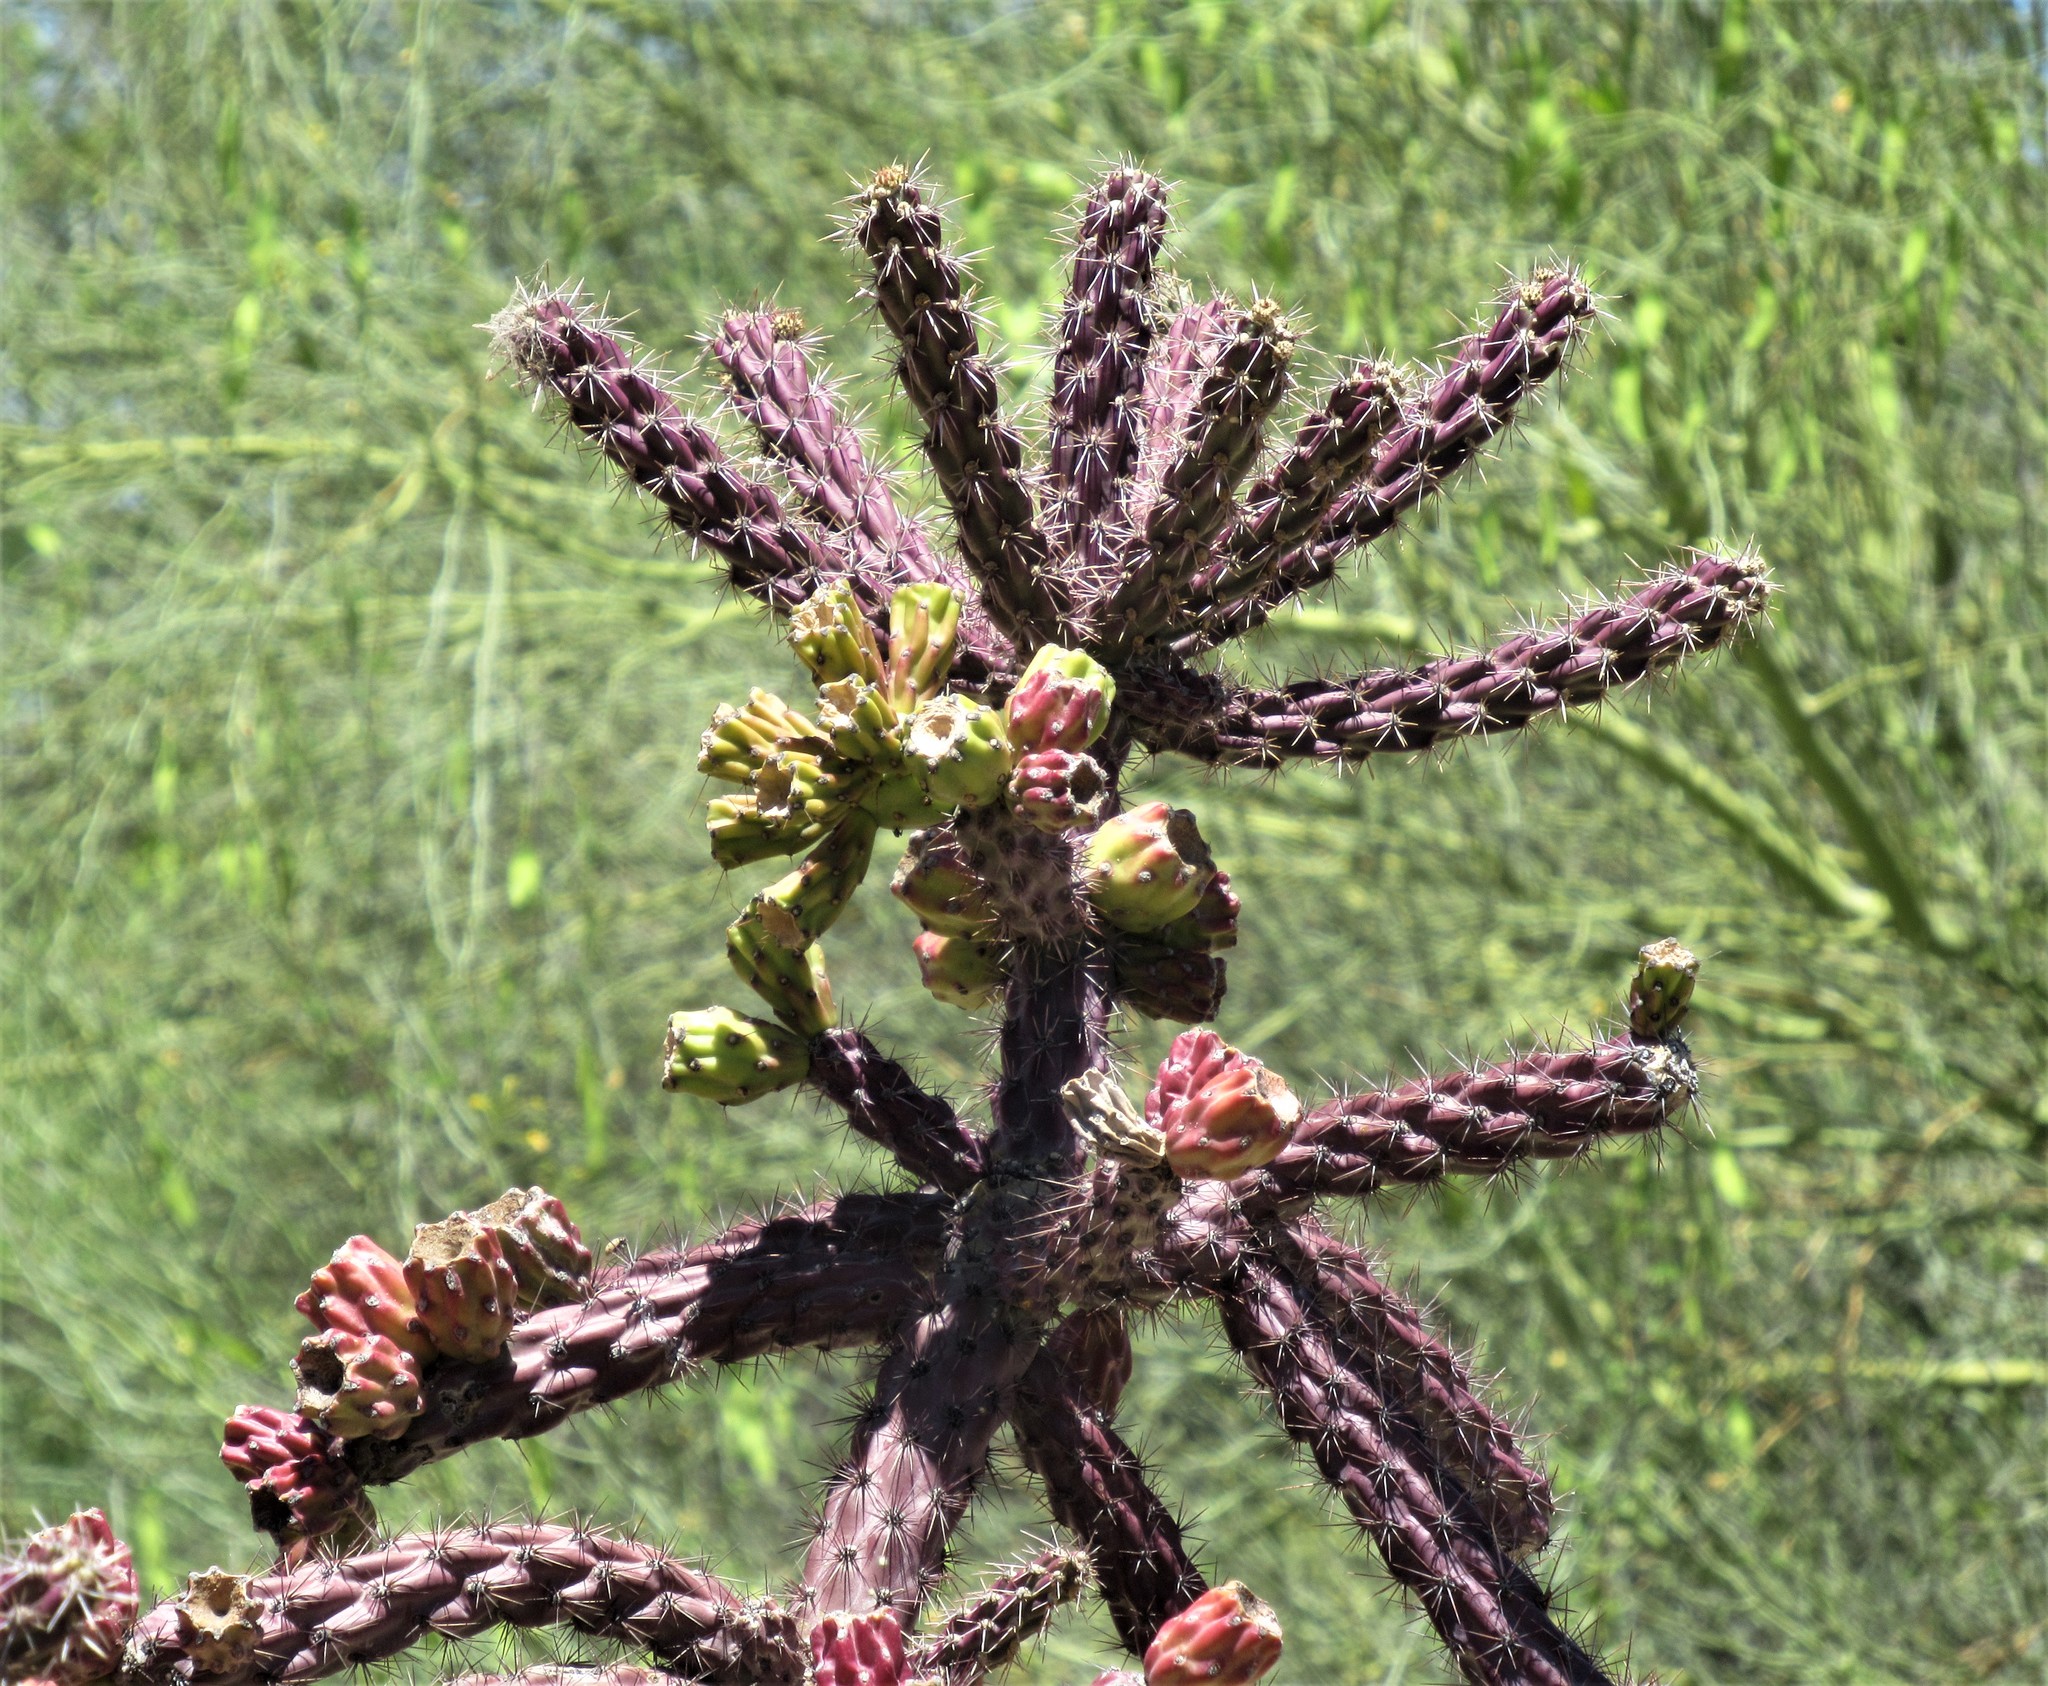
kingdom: Plantae
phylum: Tracheophyta
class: Magnoliopsida
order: Caryophyllales
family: Cactaceae
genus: Cylindropuntia
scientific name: Cylindropuntia imbricata
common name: Candelabrum cactus
